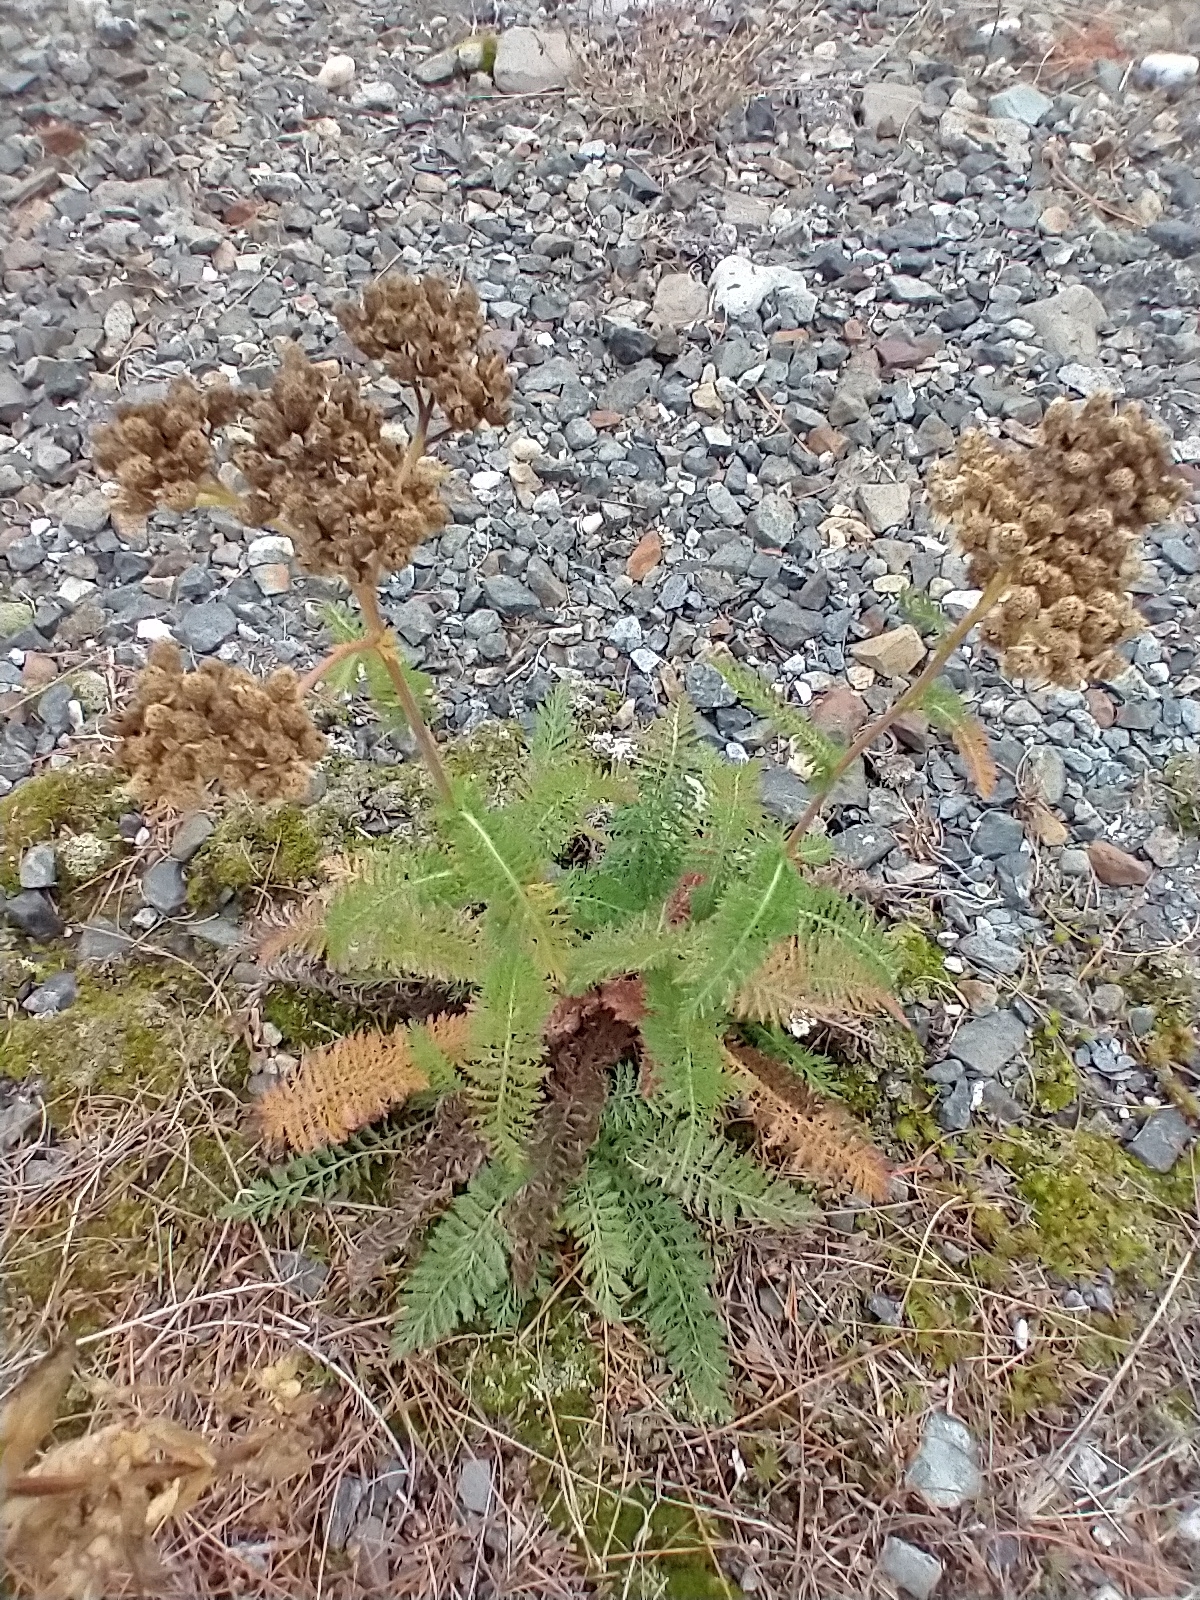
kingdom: Plantae
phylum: Tracheophyta
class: Magnoliopsida
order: Asterales
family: Asteraceae
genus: Achillea
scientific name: Achillea millefolium
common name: Yarrow
